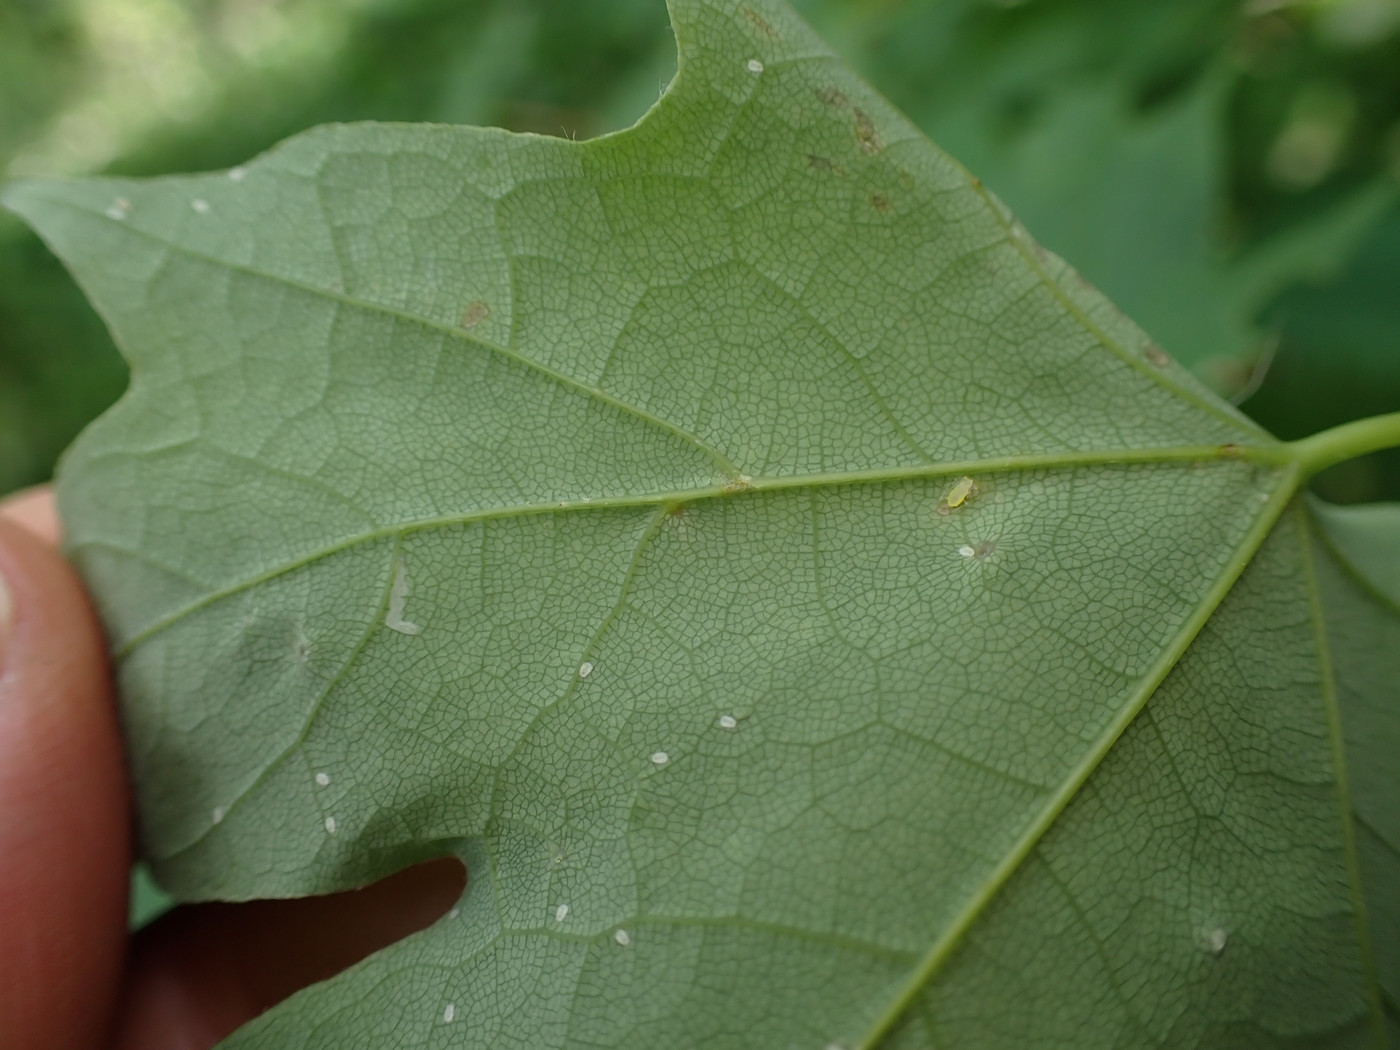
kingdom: Animalia
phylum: Arthropoda
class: Arachnida
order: Trombidiformes
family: Eriophyidae
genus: Vasates
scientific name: Vasates aceriscrumena
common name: Maple spindle gall mite
